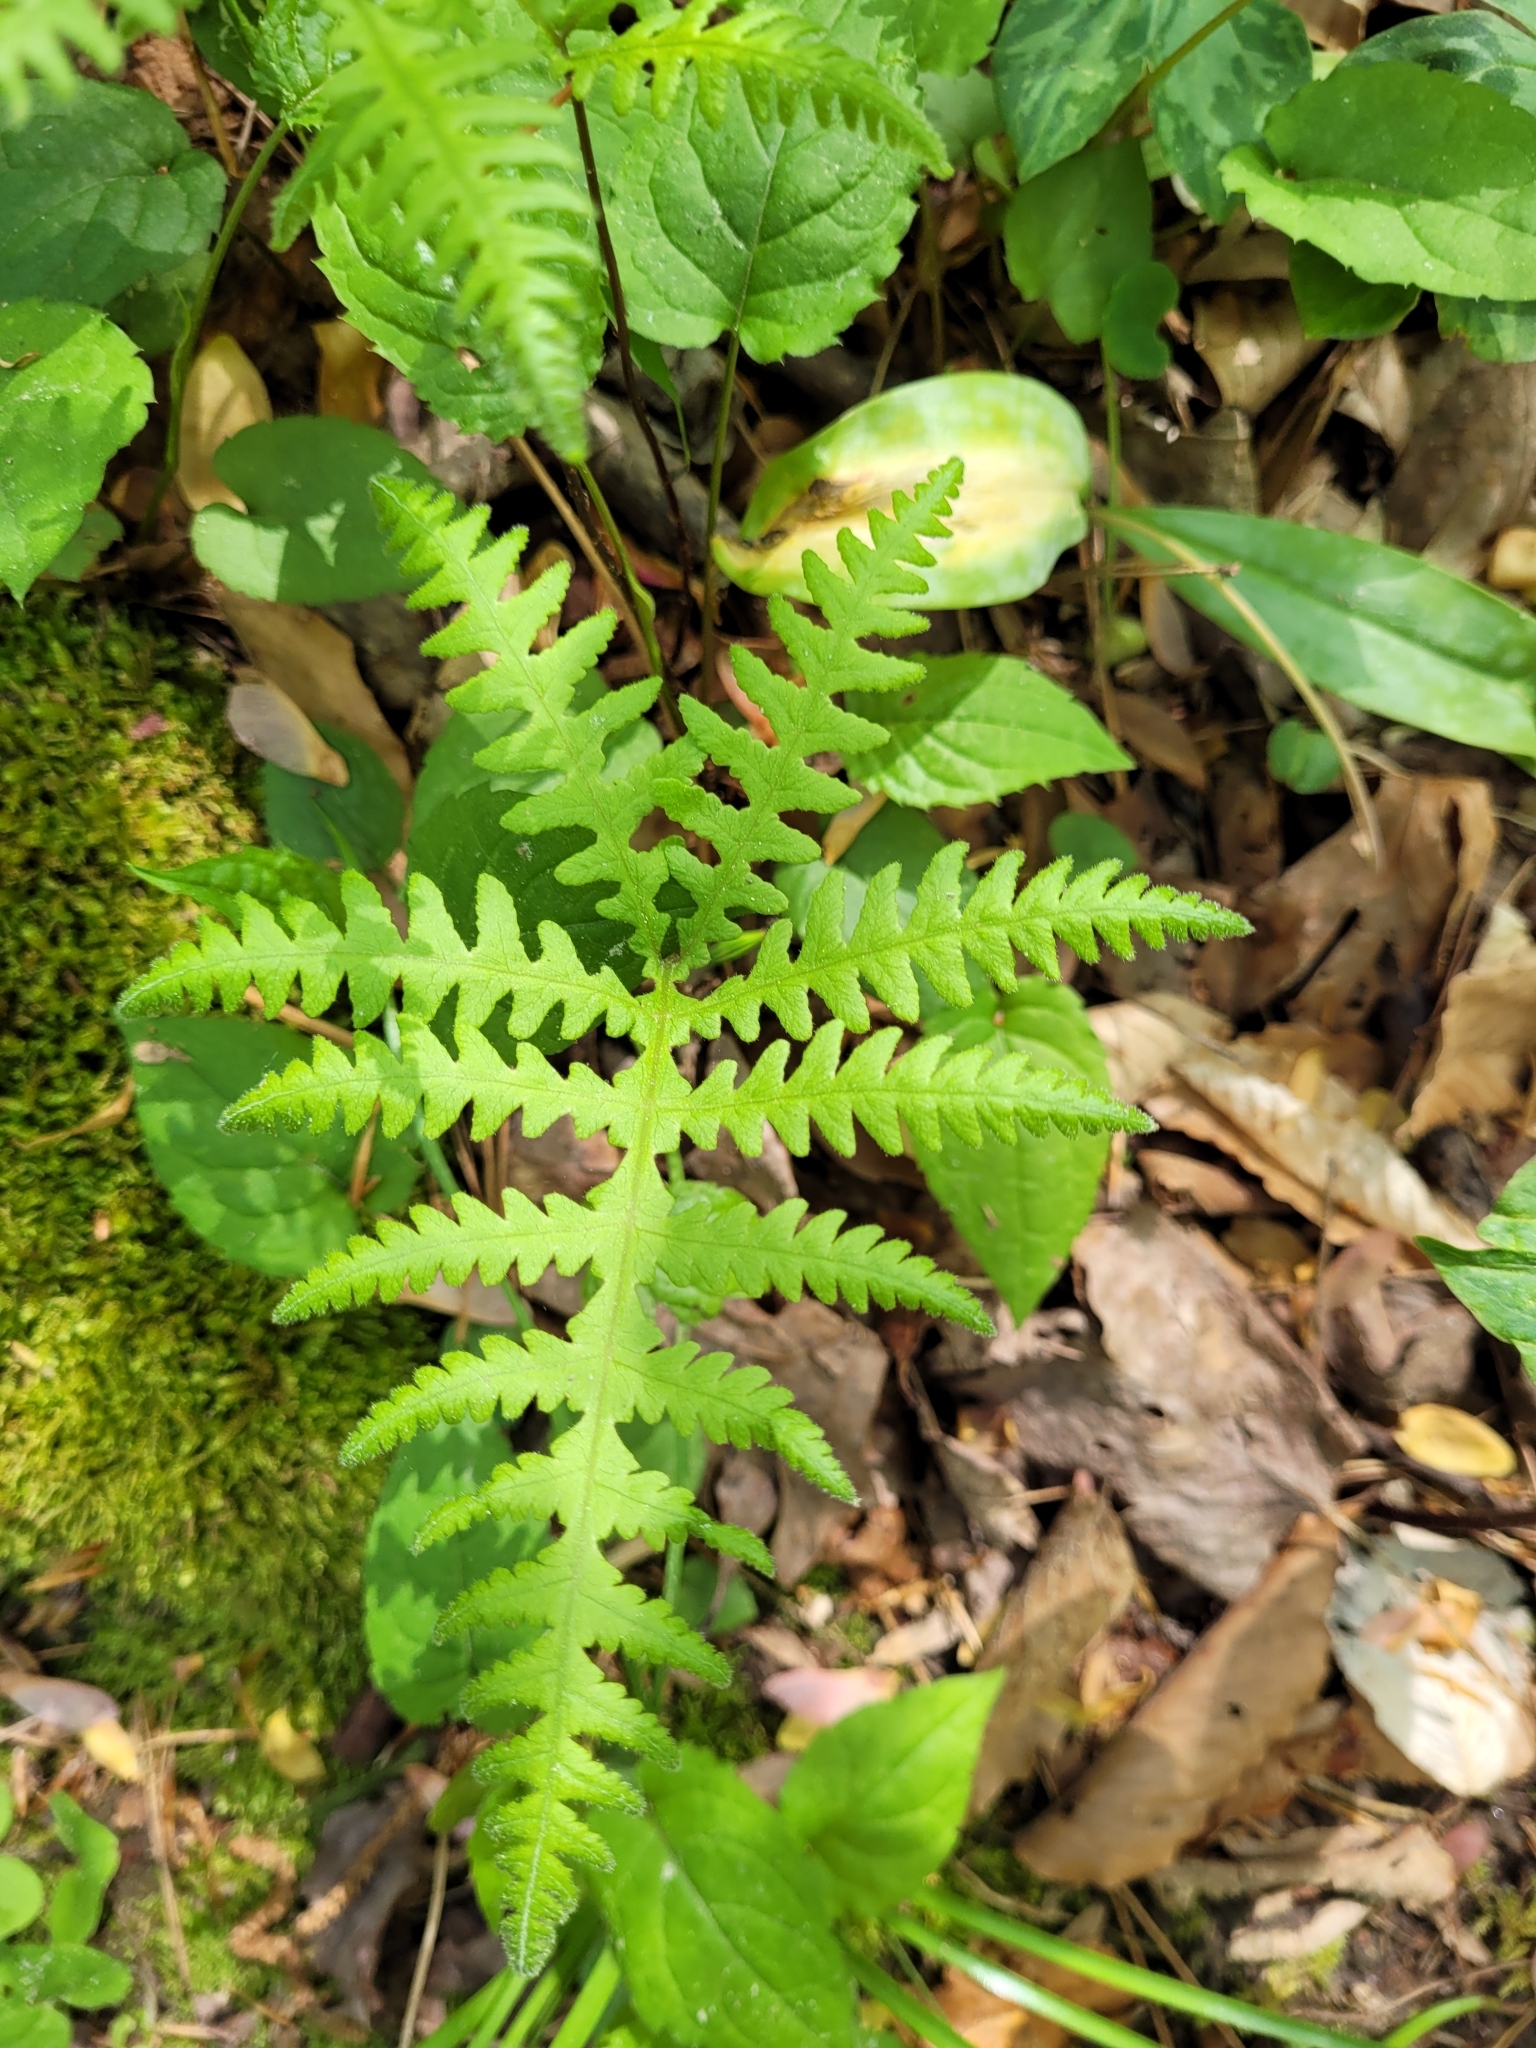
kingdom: Plantae
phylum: Tracheophyta
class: Polypodiopsida
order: Polypodiales
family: Thelypteridaceae
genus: Phegopteris
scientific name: Phegopteris hexagonoptera
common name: Broad beech fern
